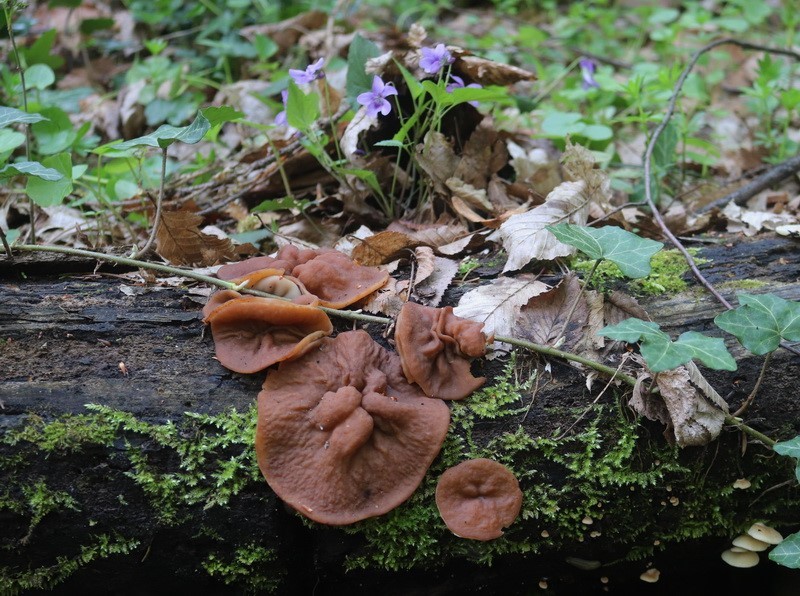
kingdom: Fungi
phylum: Ascomycota
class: Pezizomycetes
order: Pezizales
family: Discinaceae
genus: Gyromitra
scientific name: Gyromitra parma
